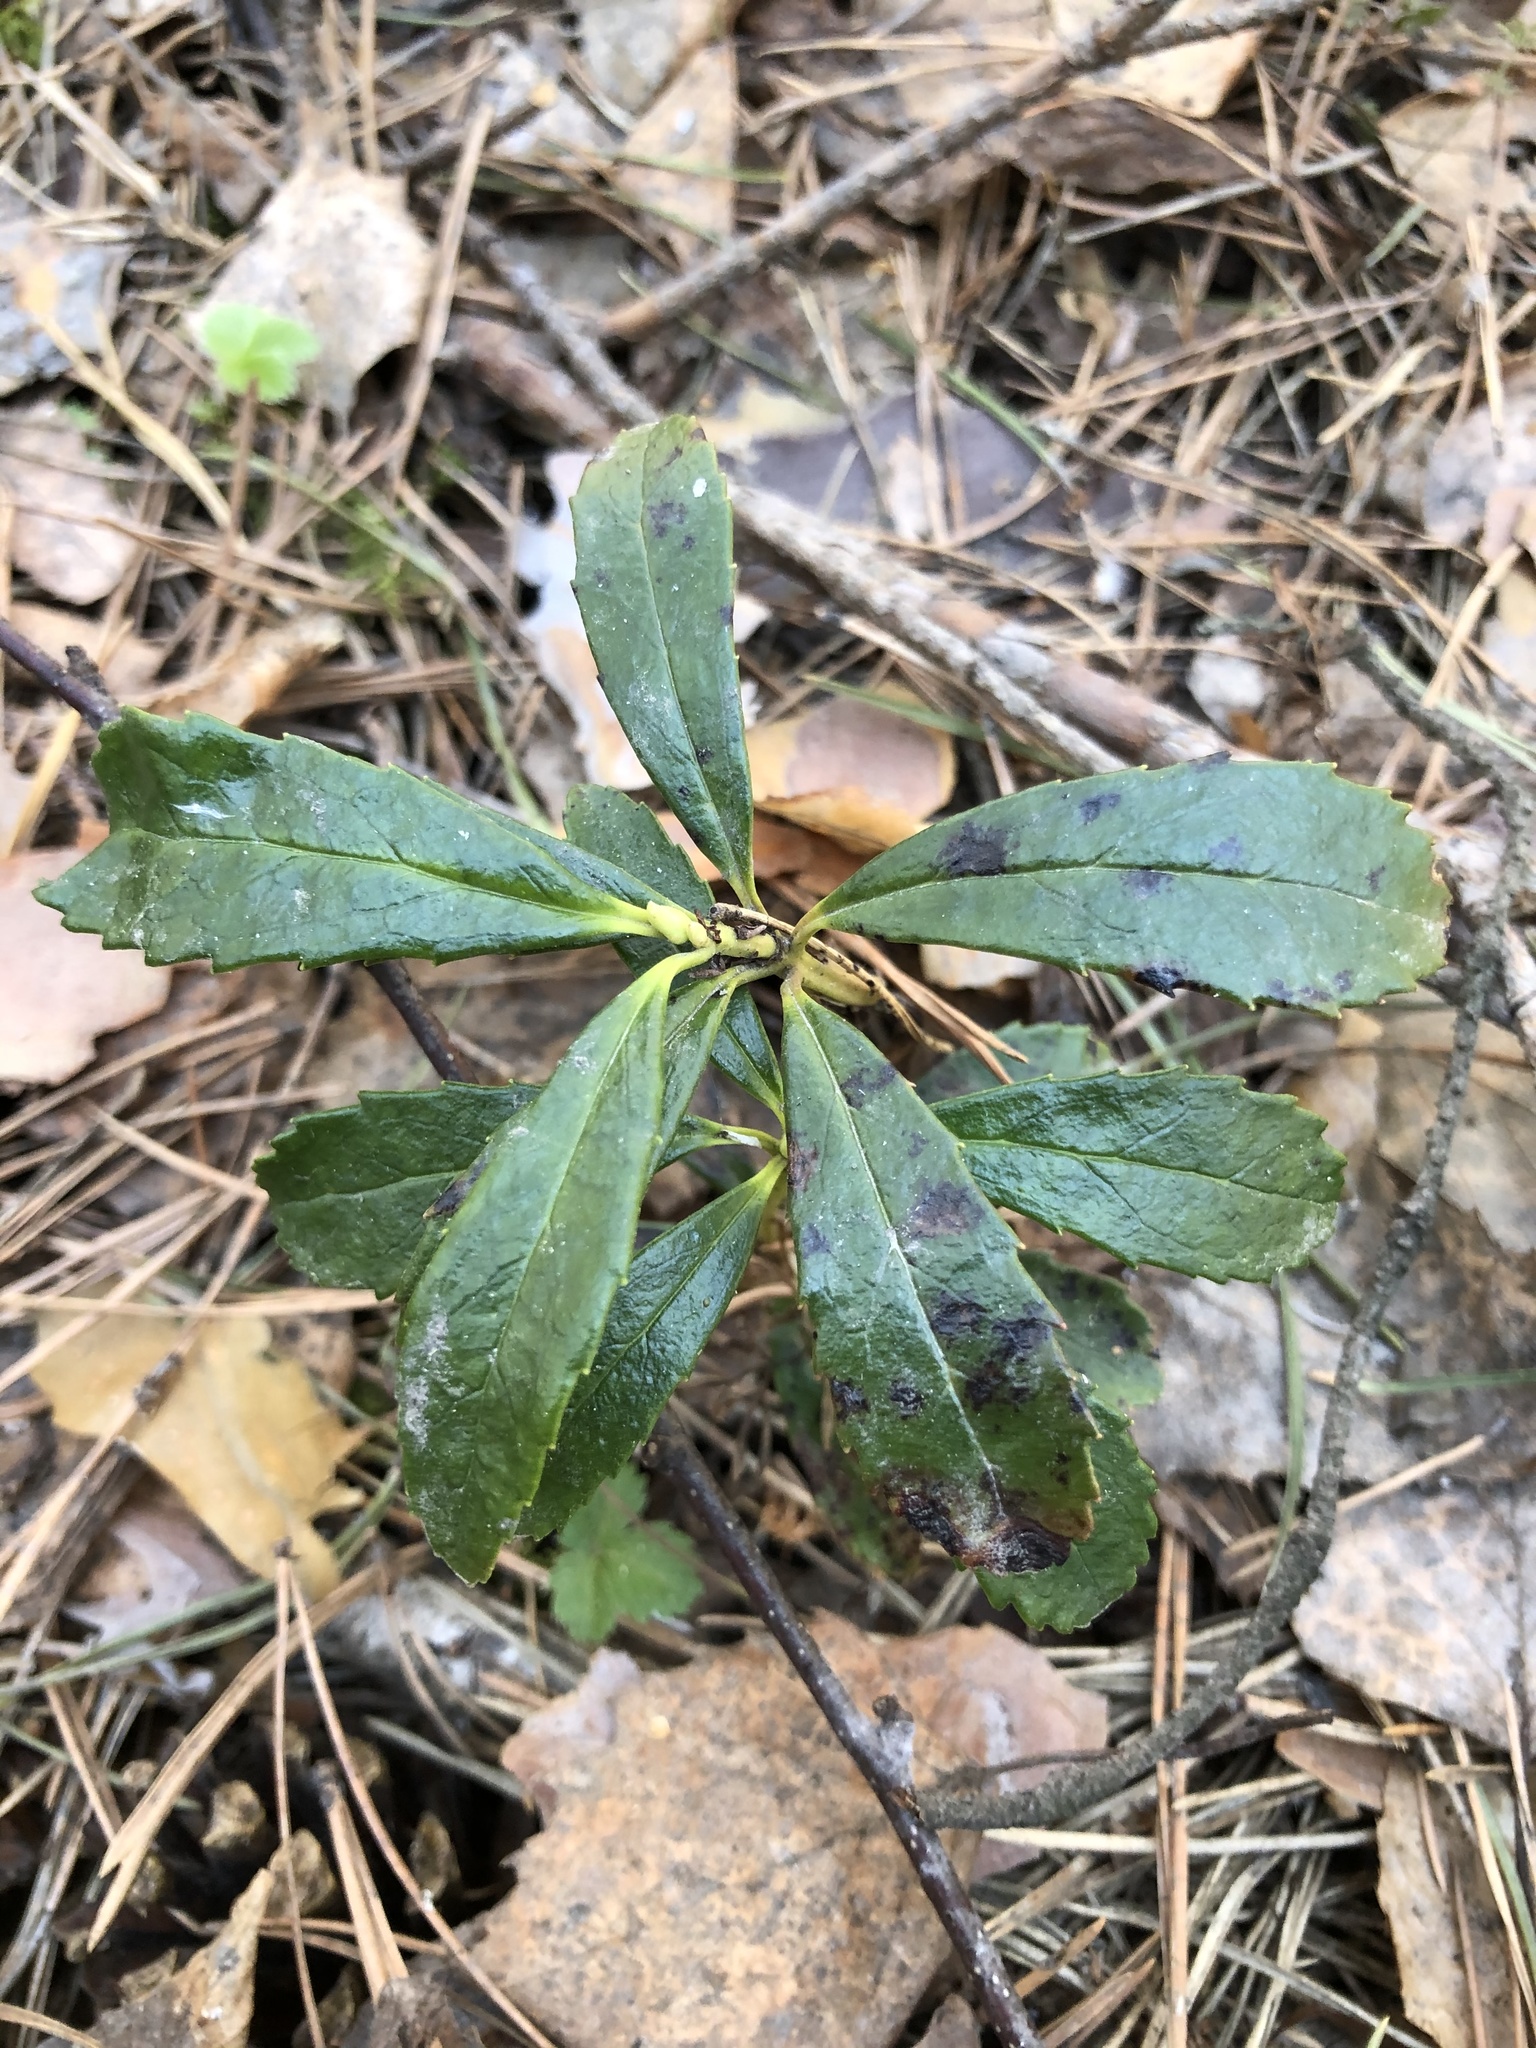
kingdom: Plantae
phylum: Tracheophyta
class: Magnoliopsida
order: Ericales
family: Ericaceae
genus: Chimaphila
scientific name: Chimaphila umbellata
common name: Pipsissewa
